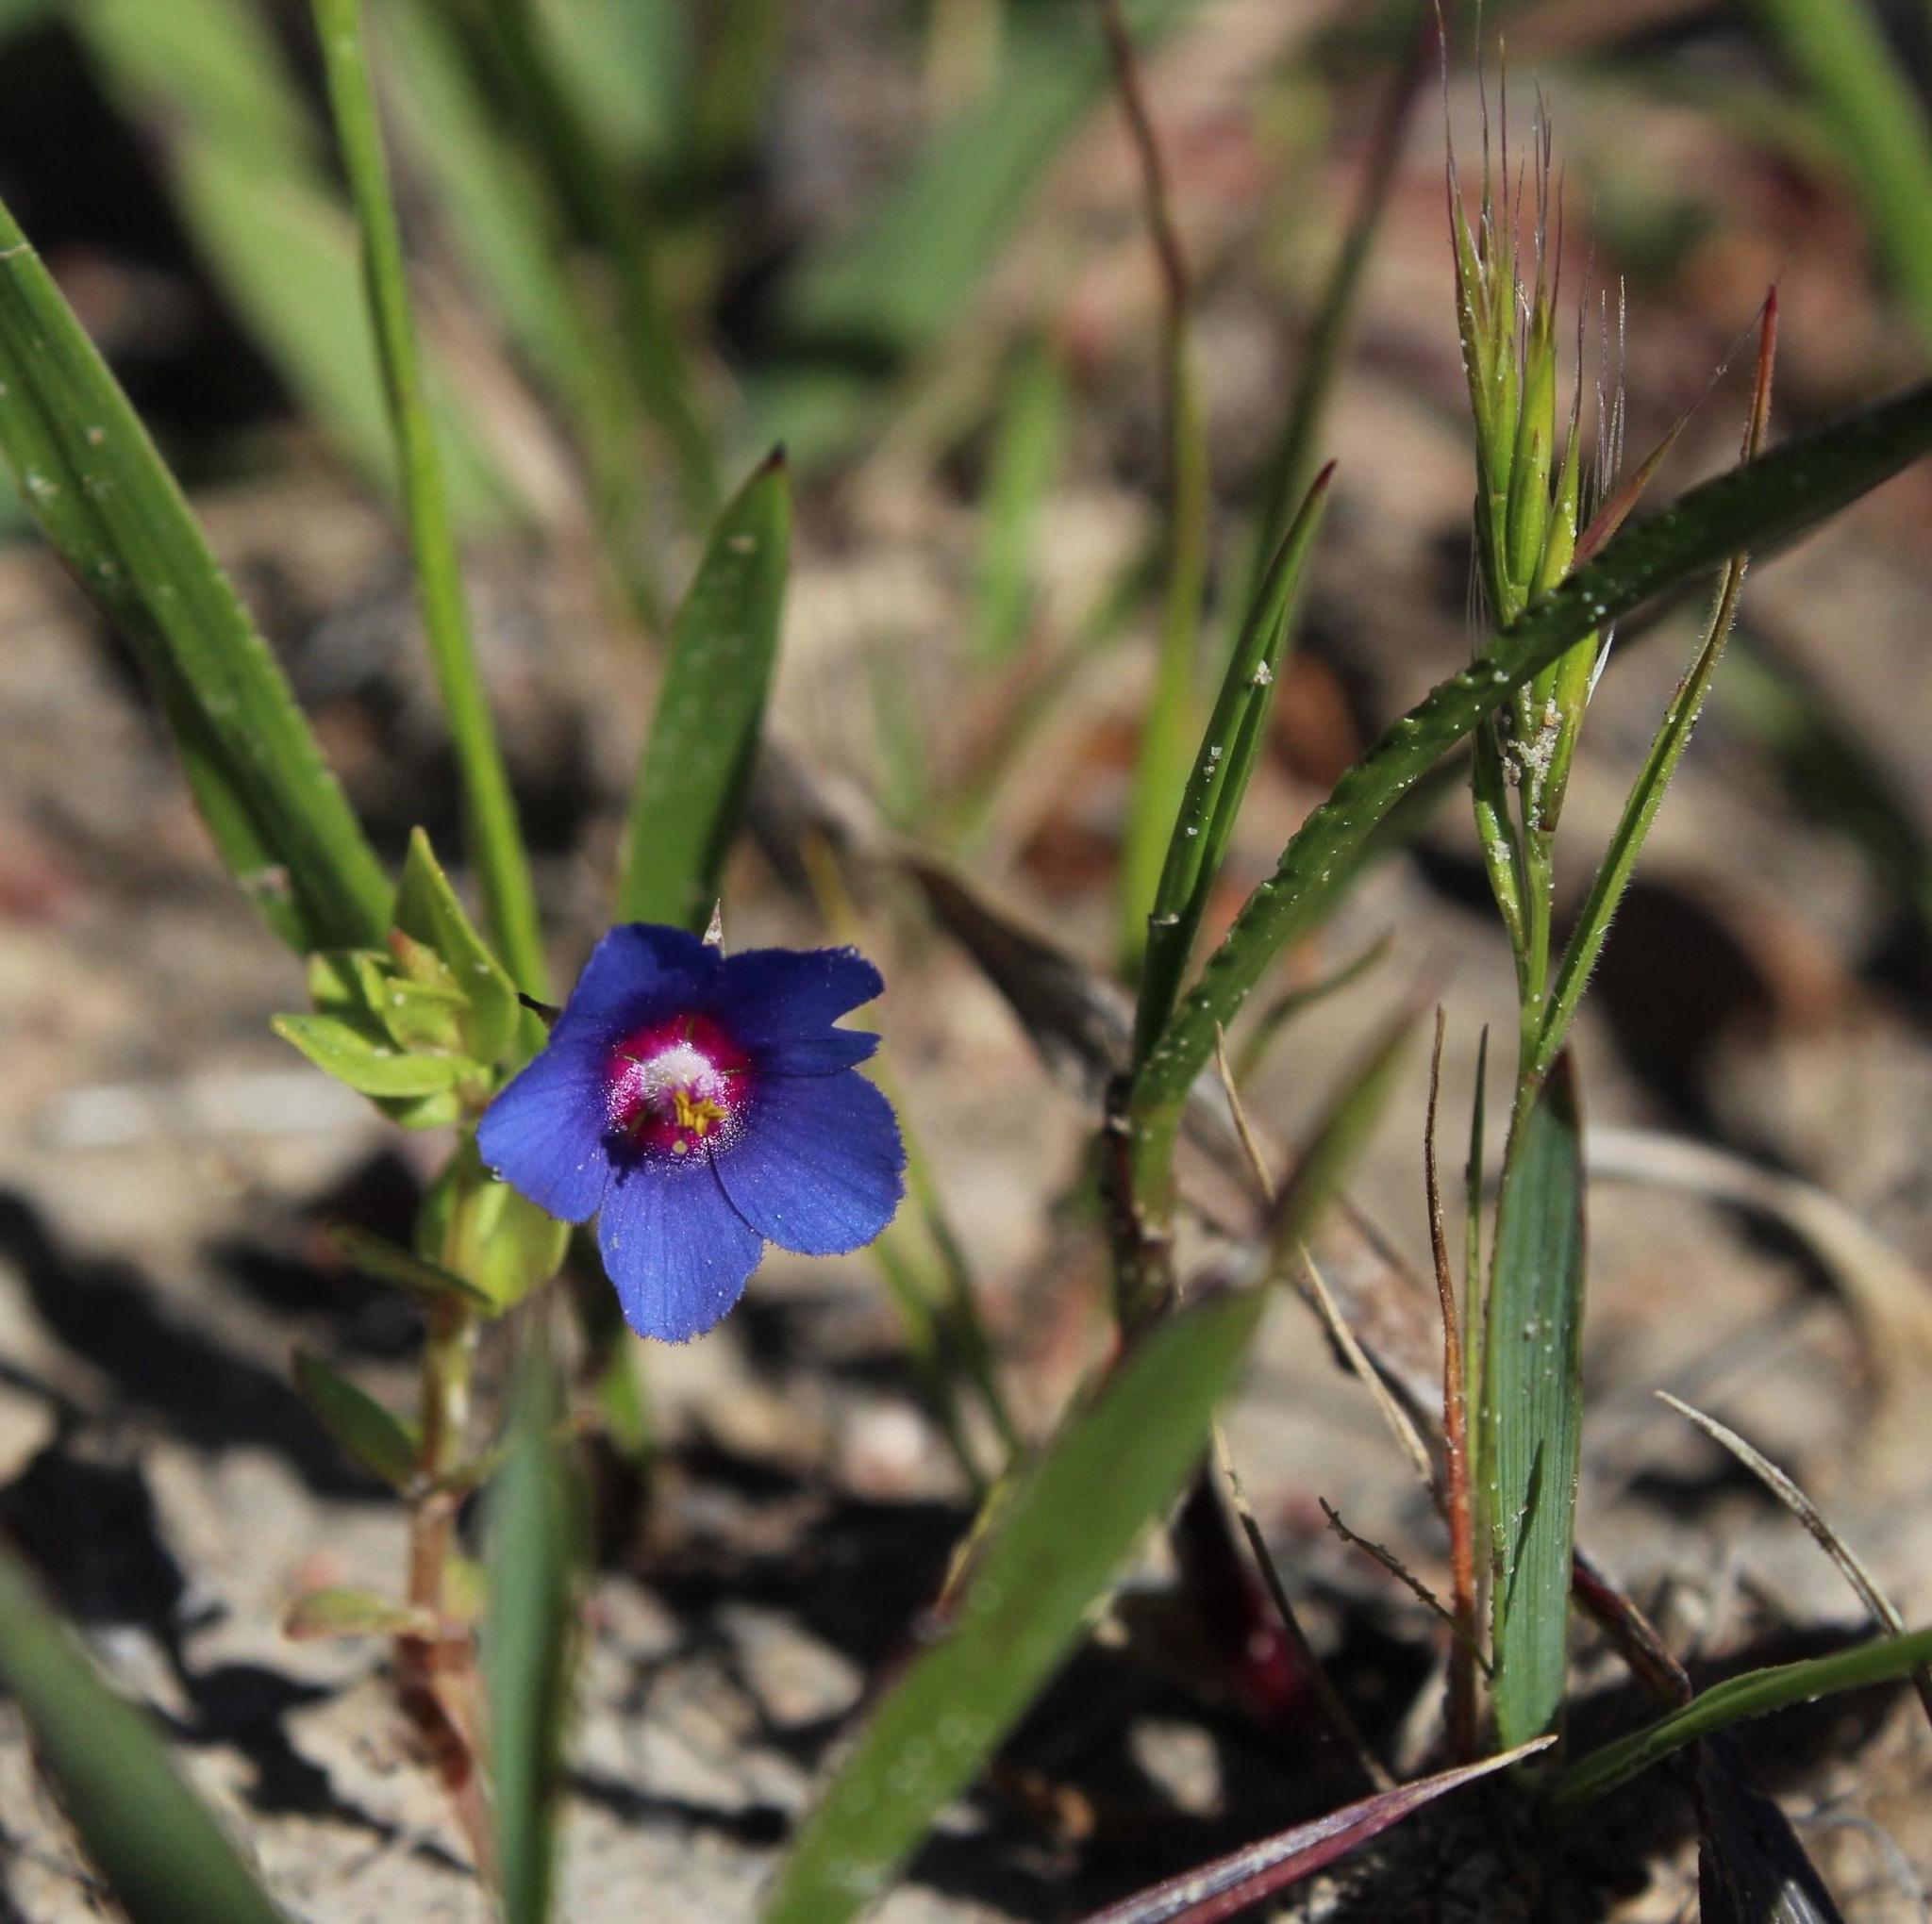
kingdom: Plantae
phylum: Tracheophyta
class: Magnoliopsida
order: Ericales
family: Primulaceae
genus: Lysimachia
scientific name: Lysimachia loeflingii
